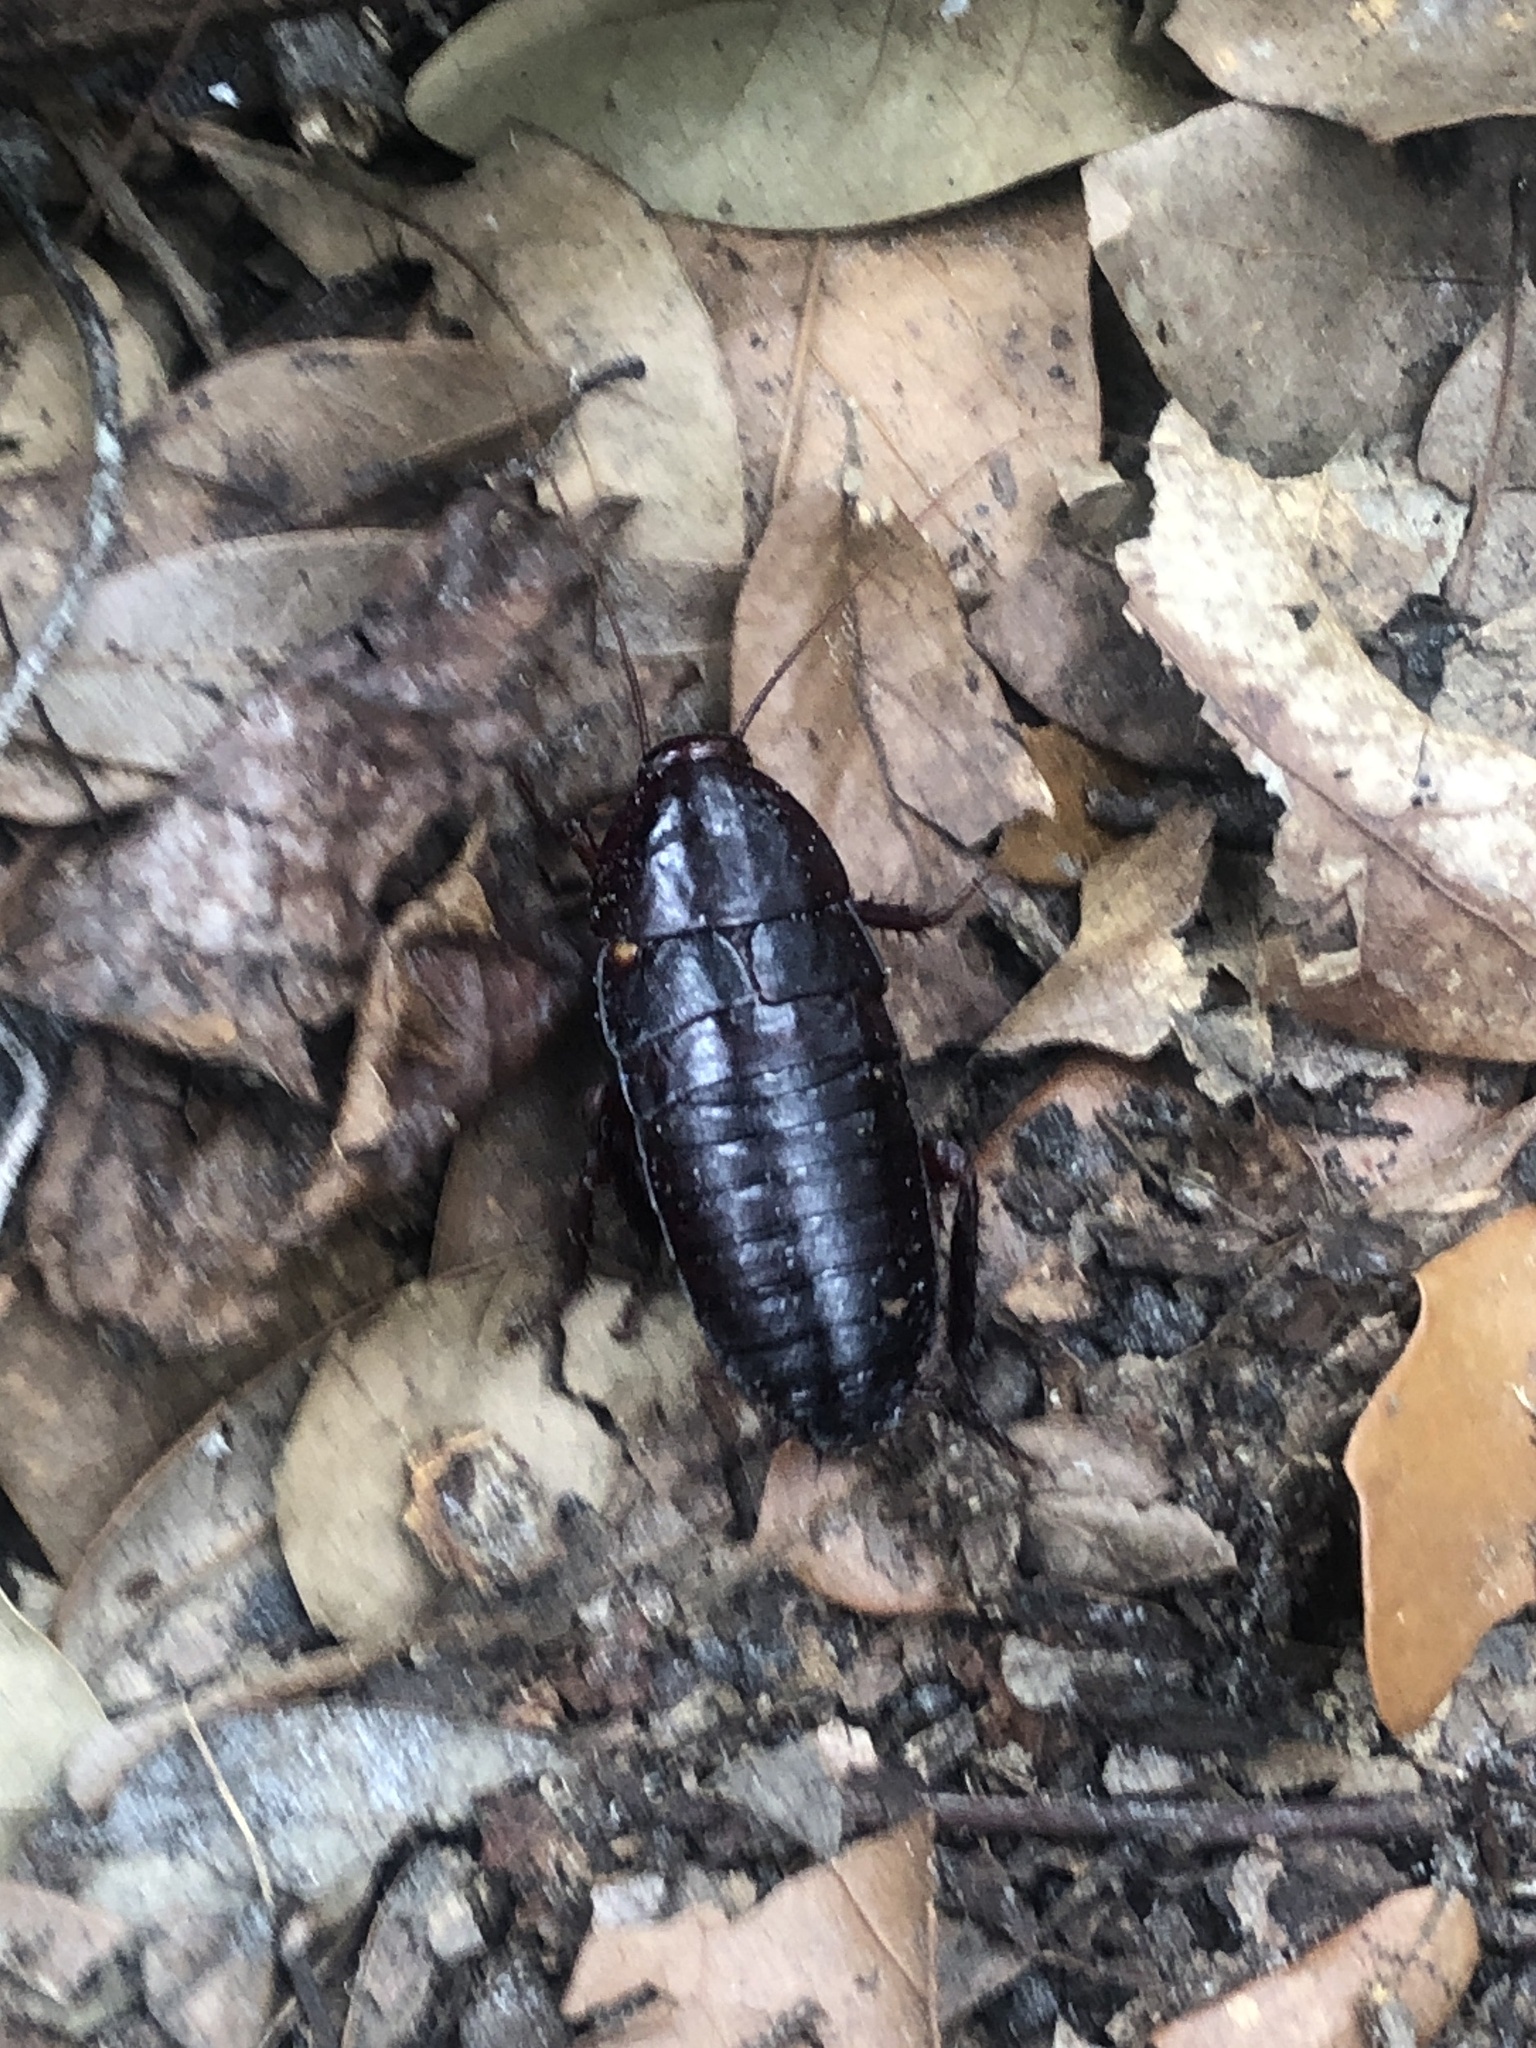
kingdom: Animalia
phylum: Arthropoda
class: Insecta
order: Blattodea
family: Blattidae
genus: Eurycotis
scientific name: Eurycotis floridana
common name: Florida cockroach
